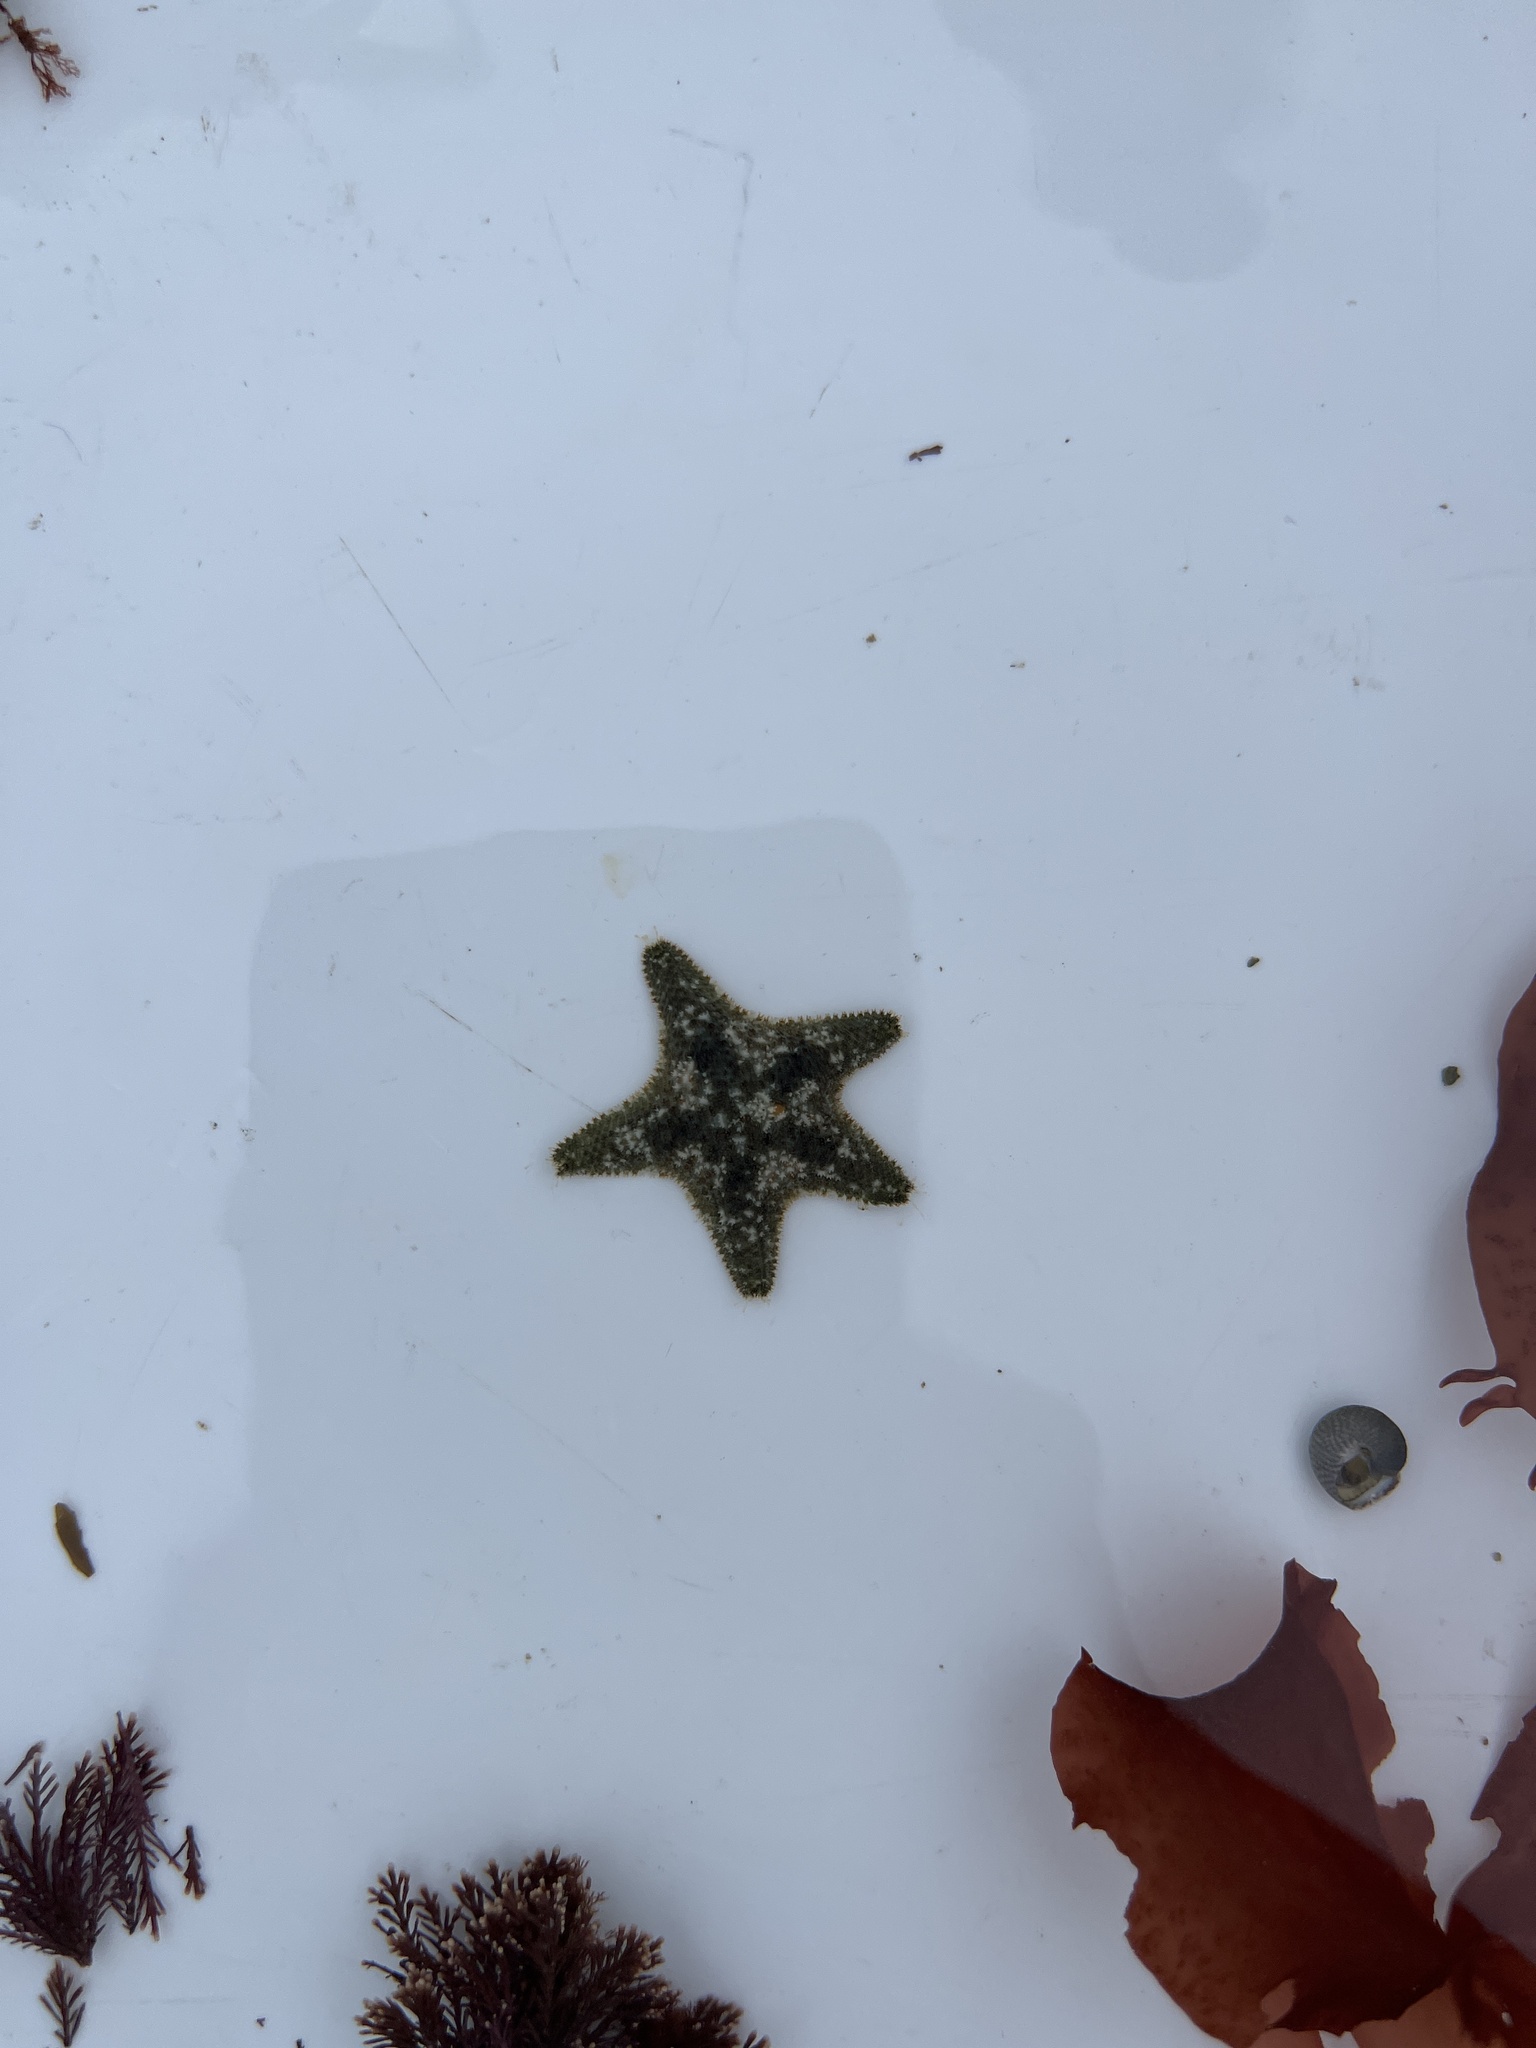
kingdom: Animalia
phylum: Echinodermata
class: Asteroidea
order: Valvatida
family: Asterinidae
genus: Asterina
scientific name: Asterina gibbosa
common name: Cushion star
